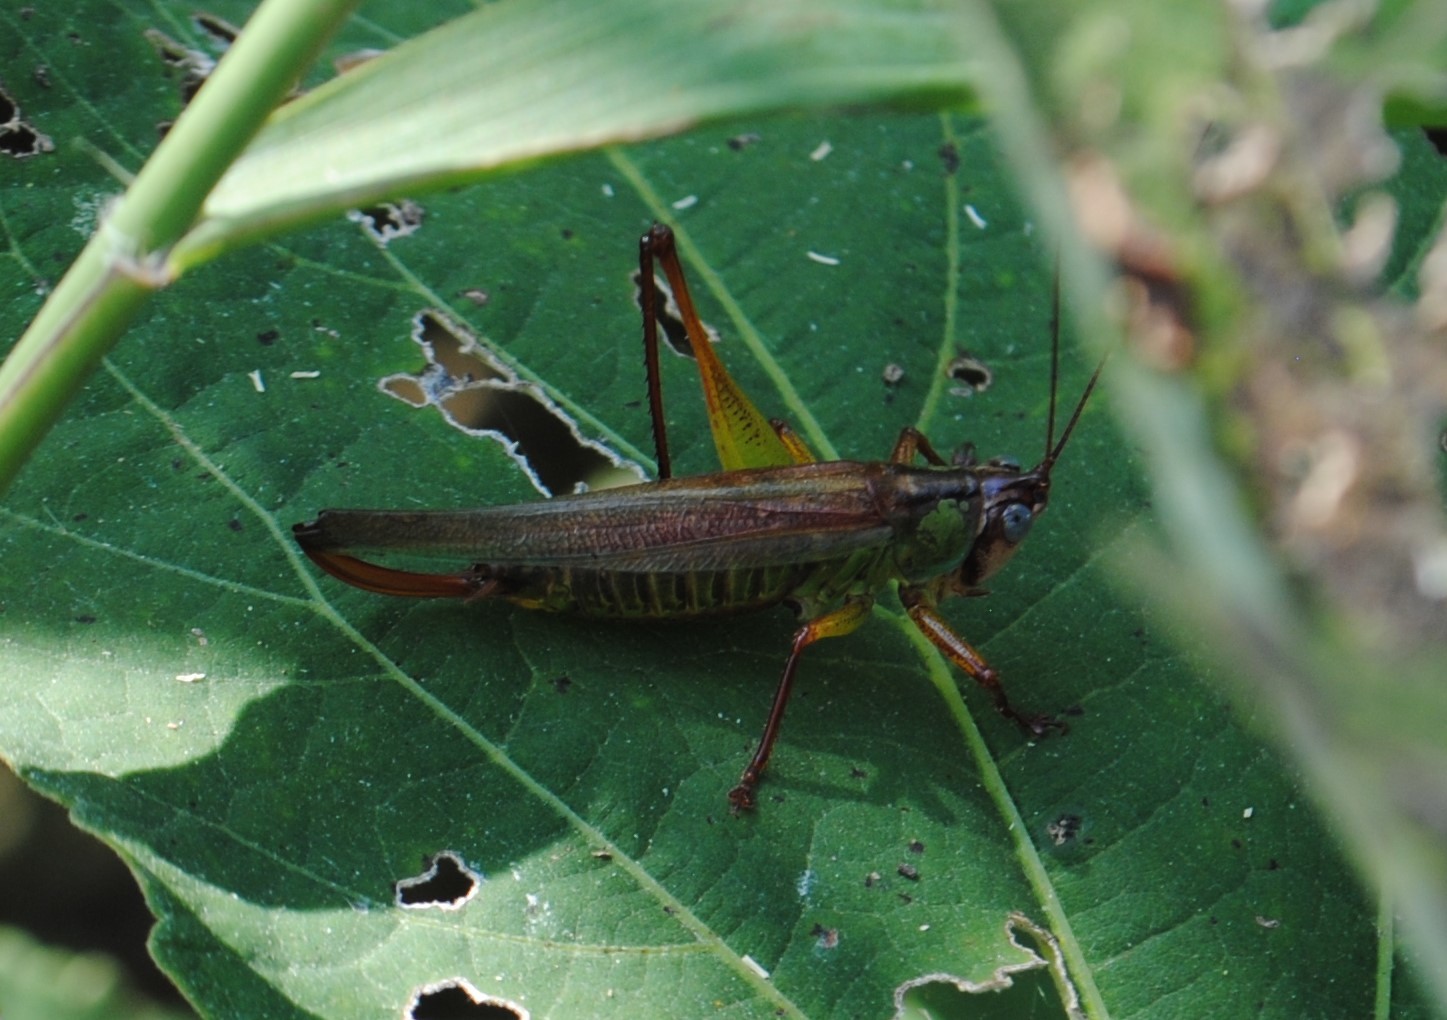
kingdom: Animalia
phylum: Arthropoda
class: Insecta
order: Orthoptera
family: Tettigoniidae
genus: Orchelimum
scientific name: Orchelimum pulchellum
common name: Handsome meadow katydid
